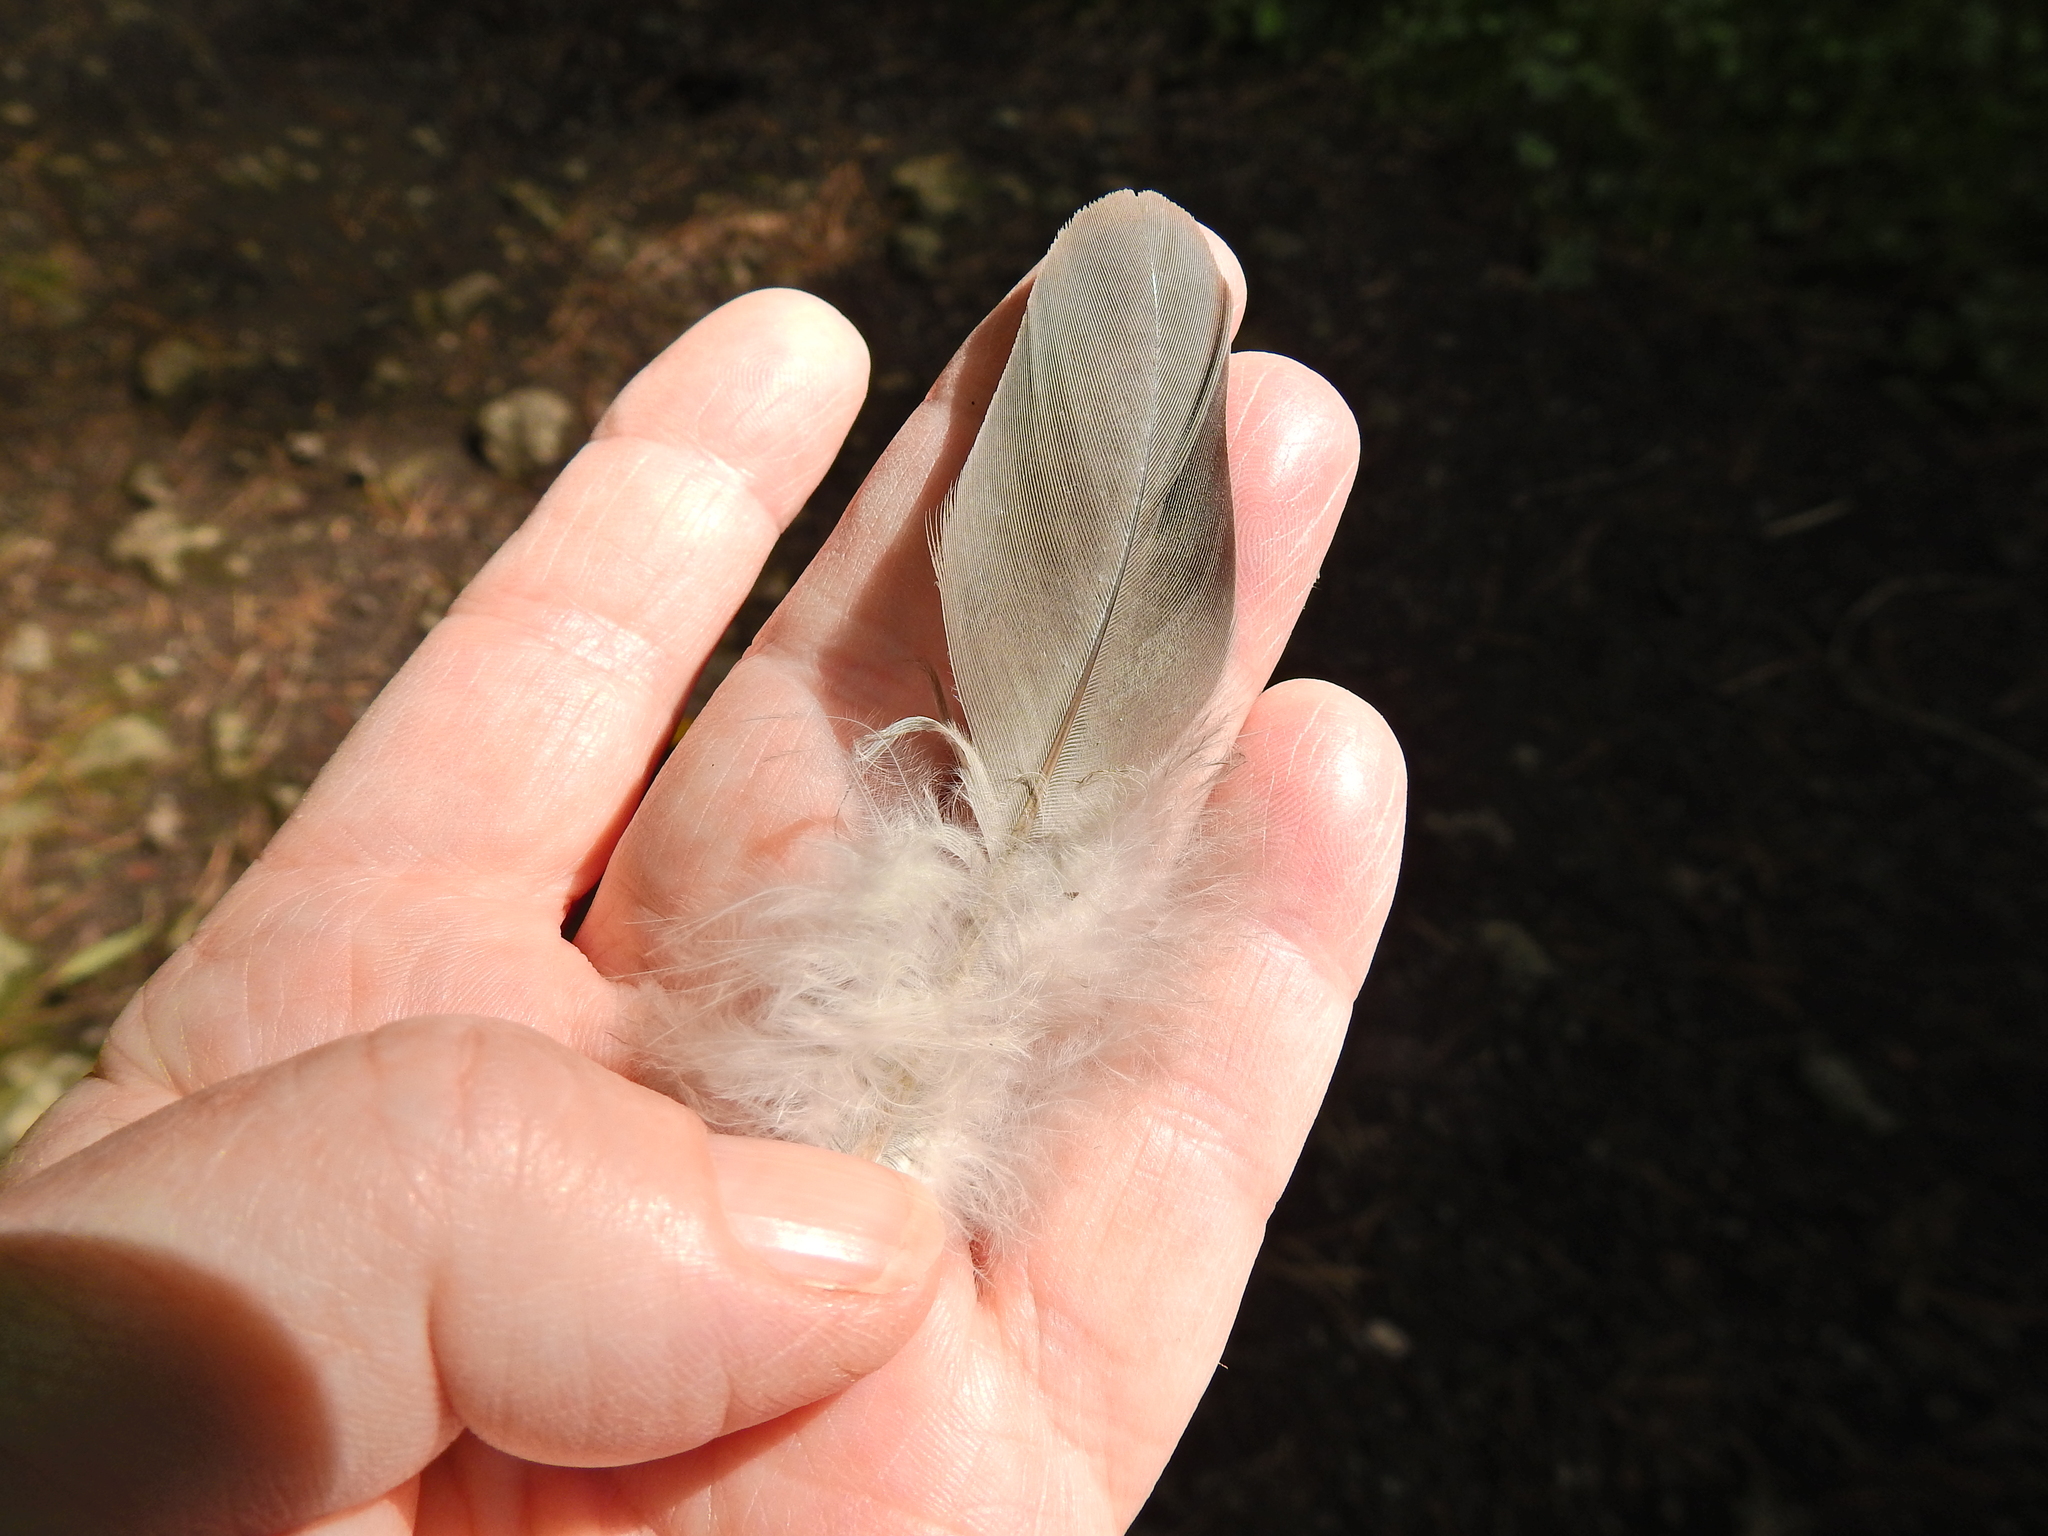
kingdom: Animalia
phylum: Chordata
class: Aves
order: Columbiformes
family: Columbidae
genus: Columba
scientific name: Columba palumbus
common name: Common wood pigeon
